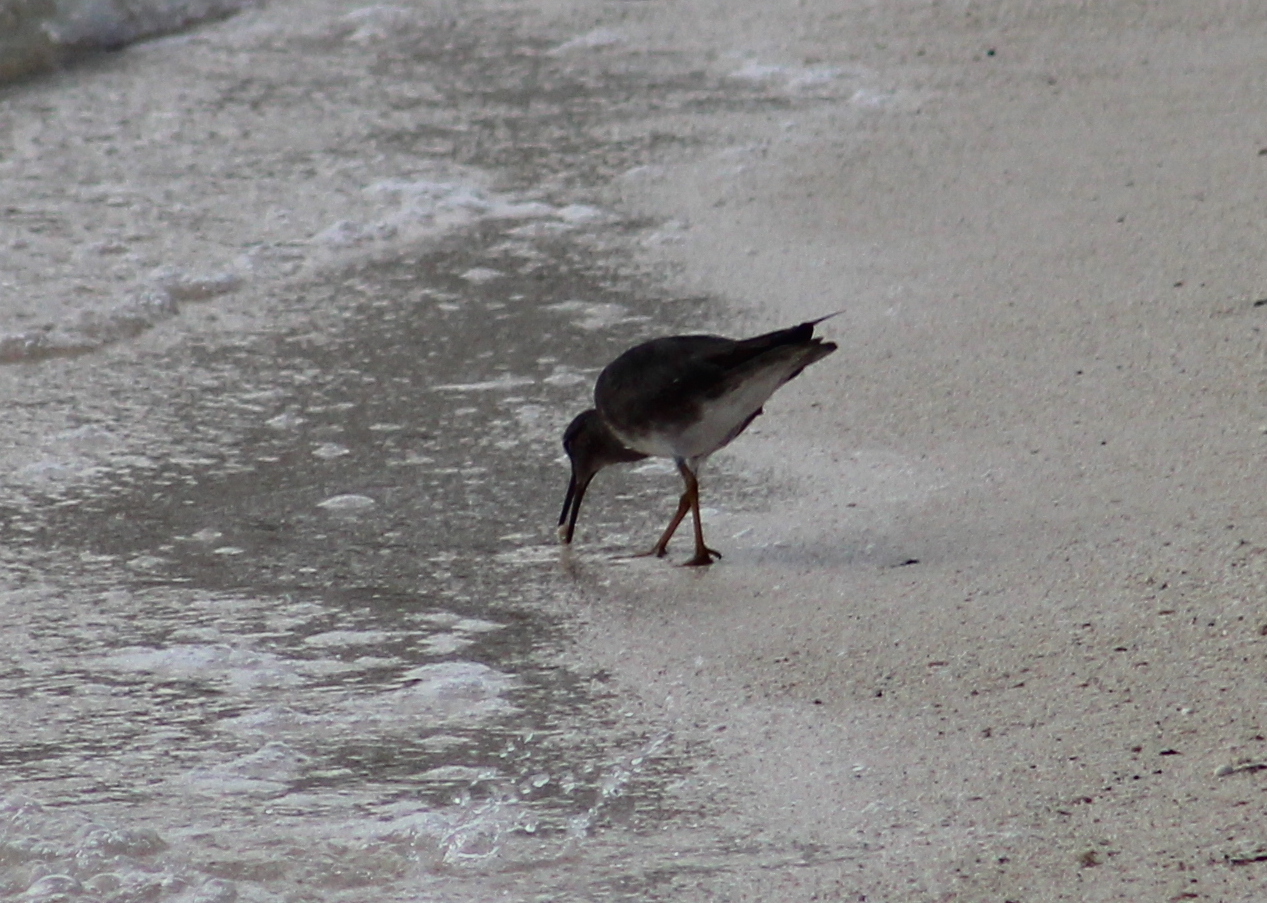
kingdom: Animalia
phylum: Chordata
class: Aves
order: Charadriiformes
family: Scolopacidae
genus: Tringa
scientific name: Tringa incana
